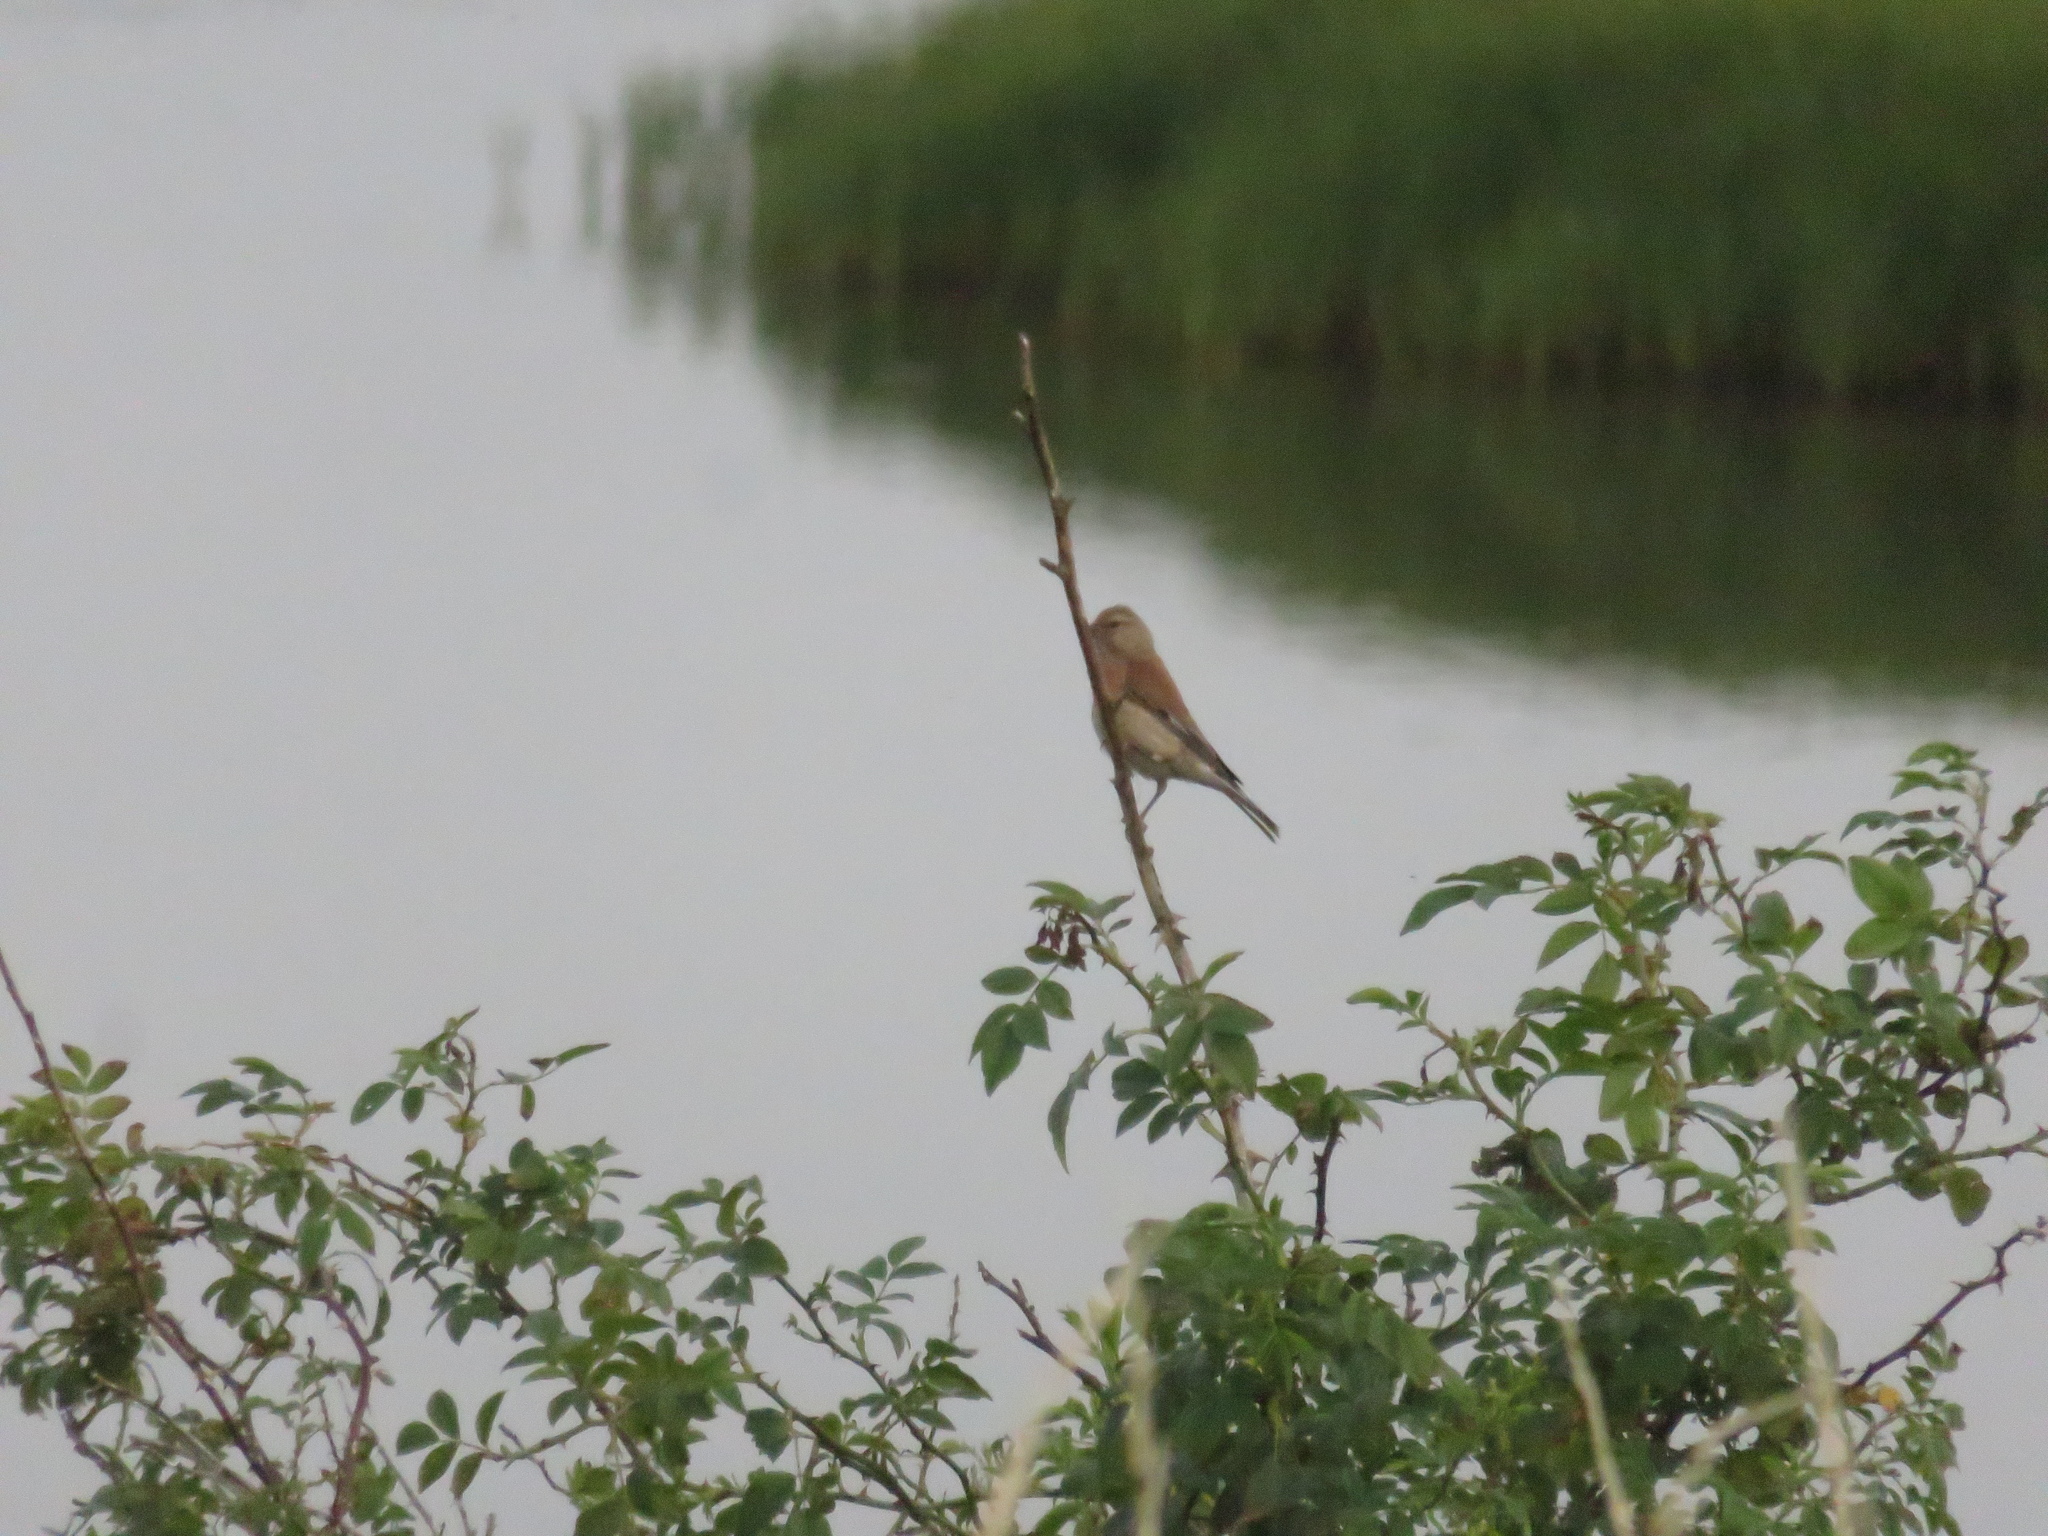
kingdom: Animalia
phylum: Chordata
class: Aves
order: Passeriformes
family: Fringillidae
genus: Linaria
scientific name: Linaria cannabina
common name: Common linnet
